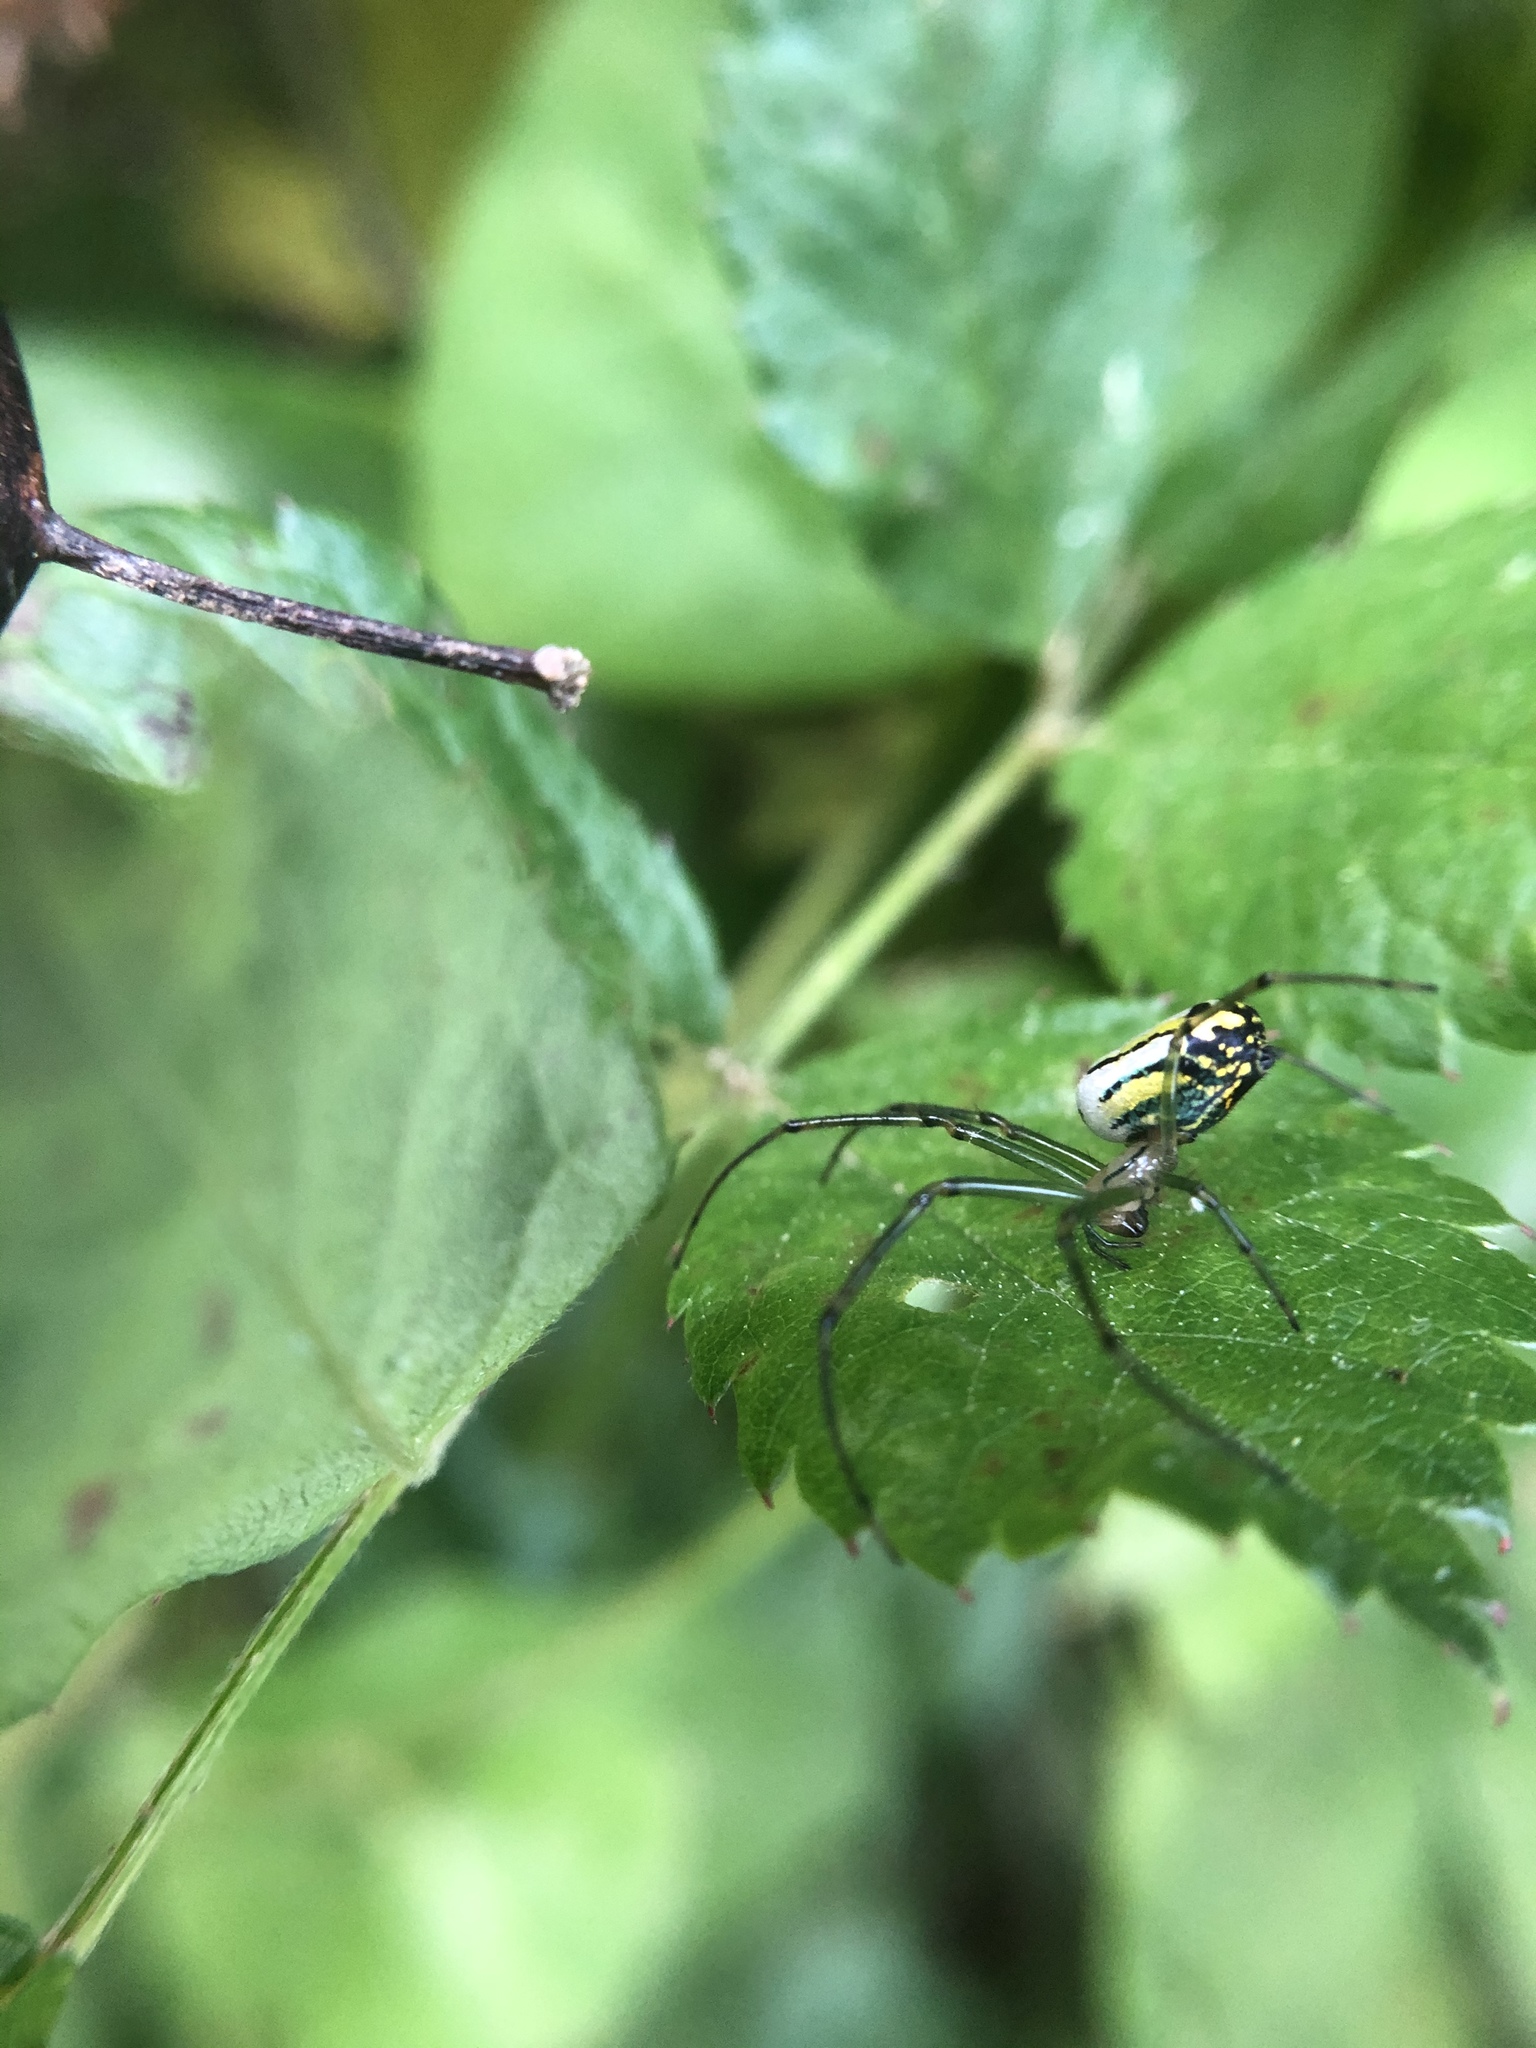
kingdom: Animalia
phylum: Arthropoda
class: Arachnida
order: Araneae
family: Tetragnathidae
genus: Leucauge
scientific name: Leucauge venusta
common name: Longjawed orb weavers
